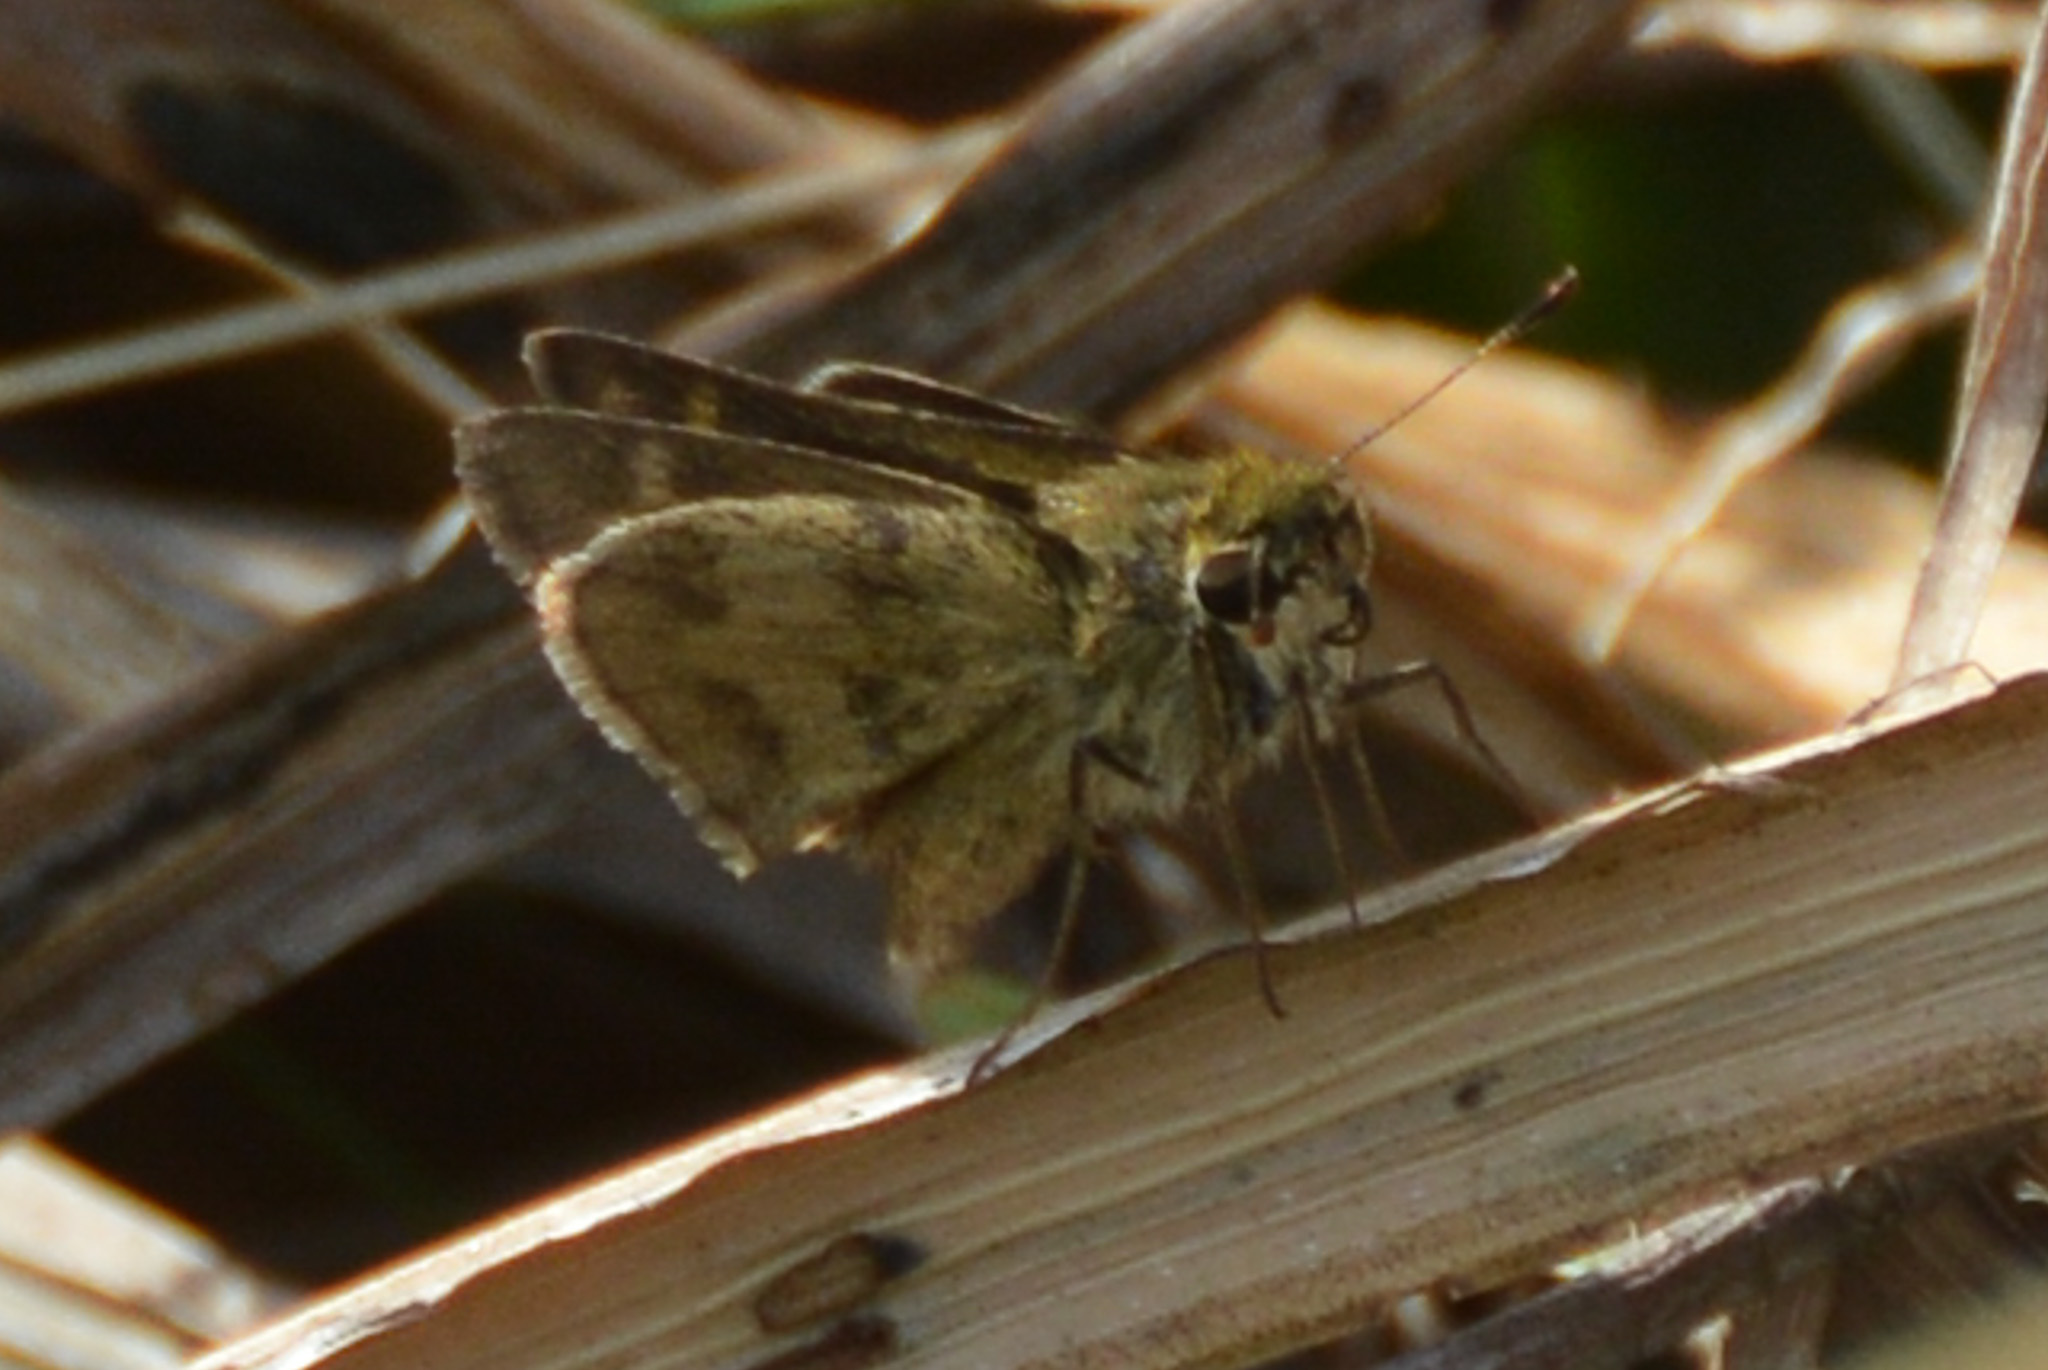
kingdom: Animalia
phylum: Arthropoda
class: Insecta
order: Lepidoptera
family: Hesperiidae
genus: Polites
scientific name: Polites vibex
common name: Whirlabout
